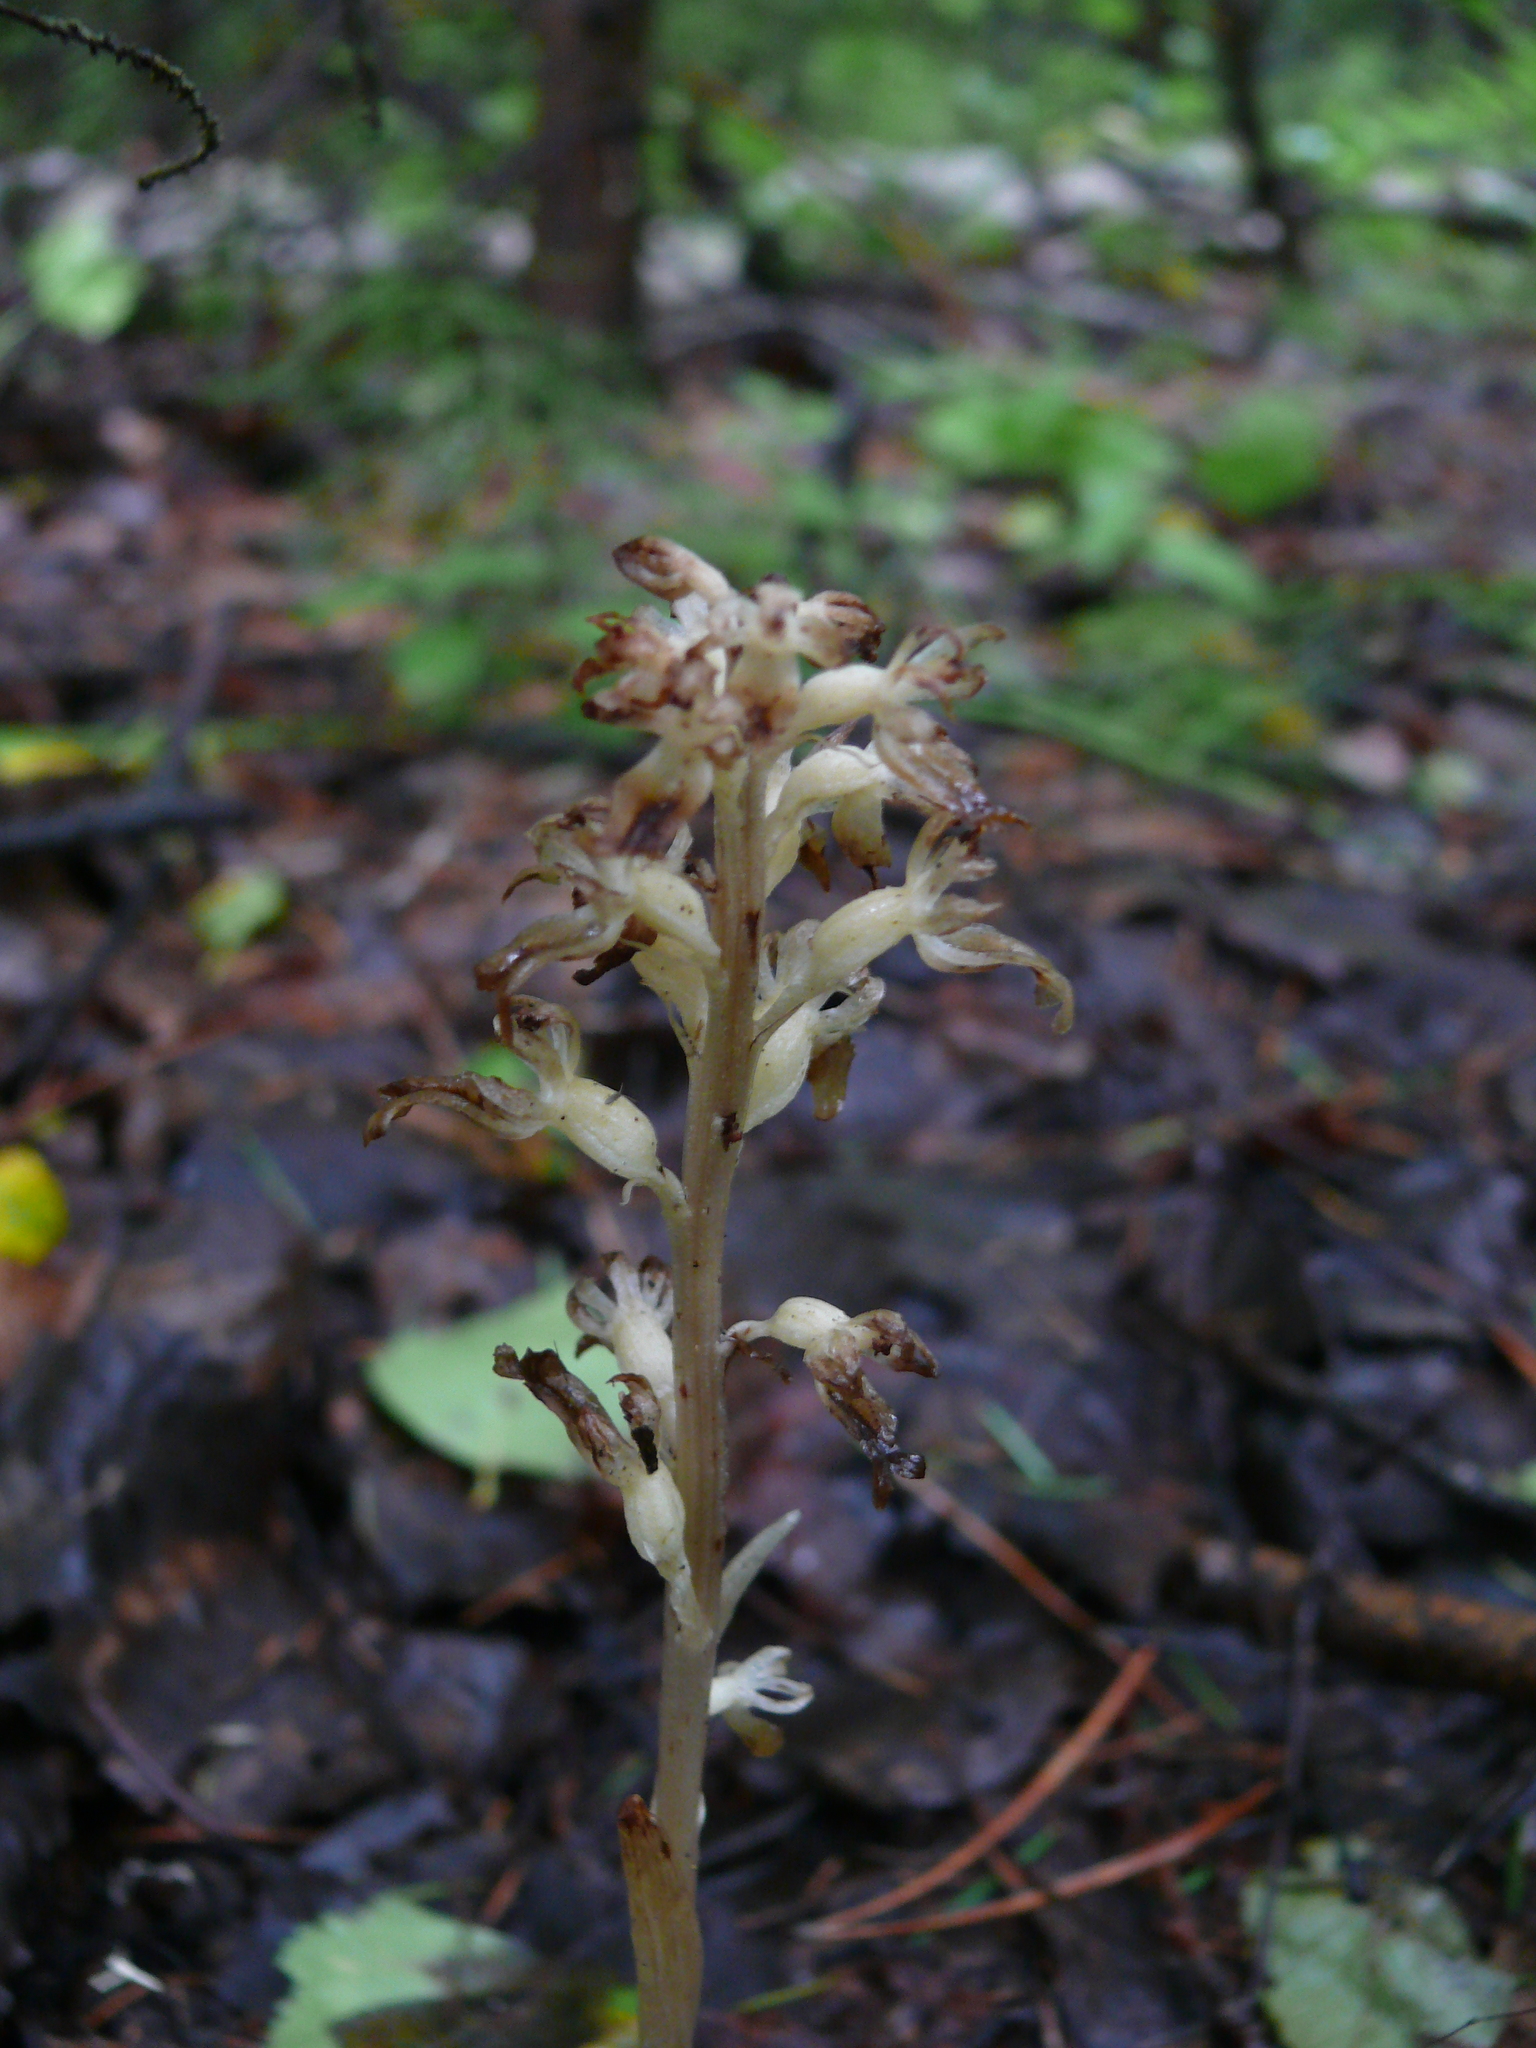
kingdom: Plantae
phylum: Tracheophyta
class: Liliopsida
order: Asparagales
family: Orchidaceae
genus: Neottia
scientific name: Neottia nidus-avis
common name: Bird's-nest orchid
